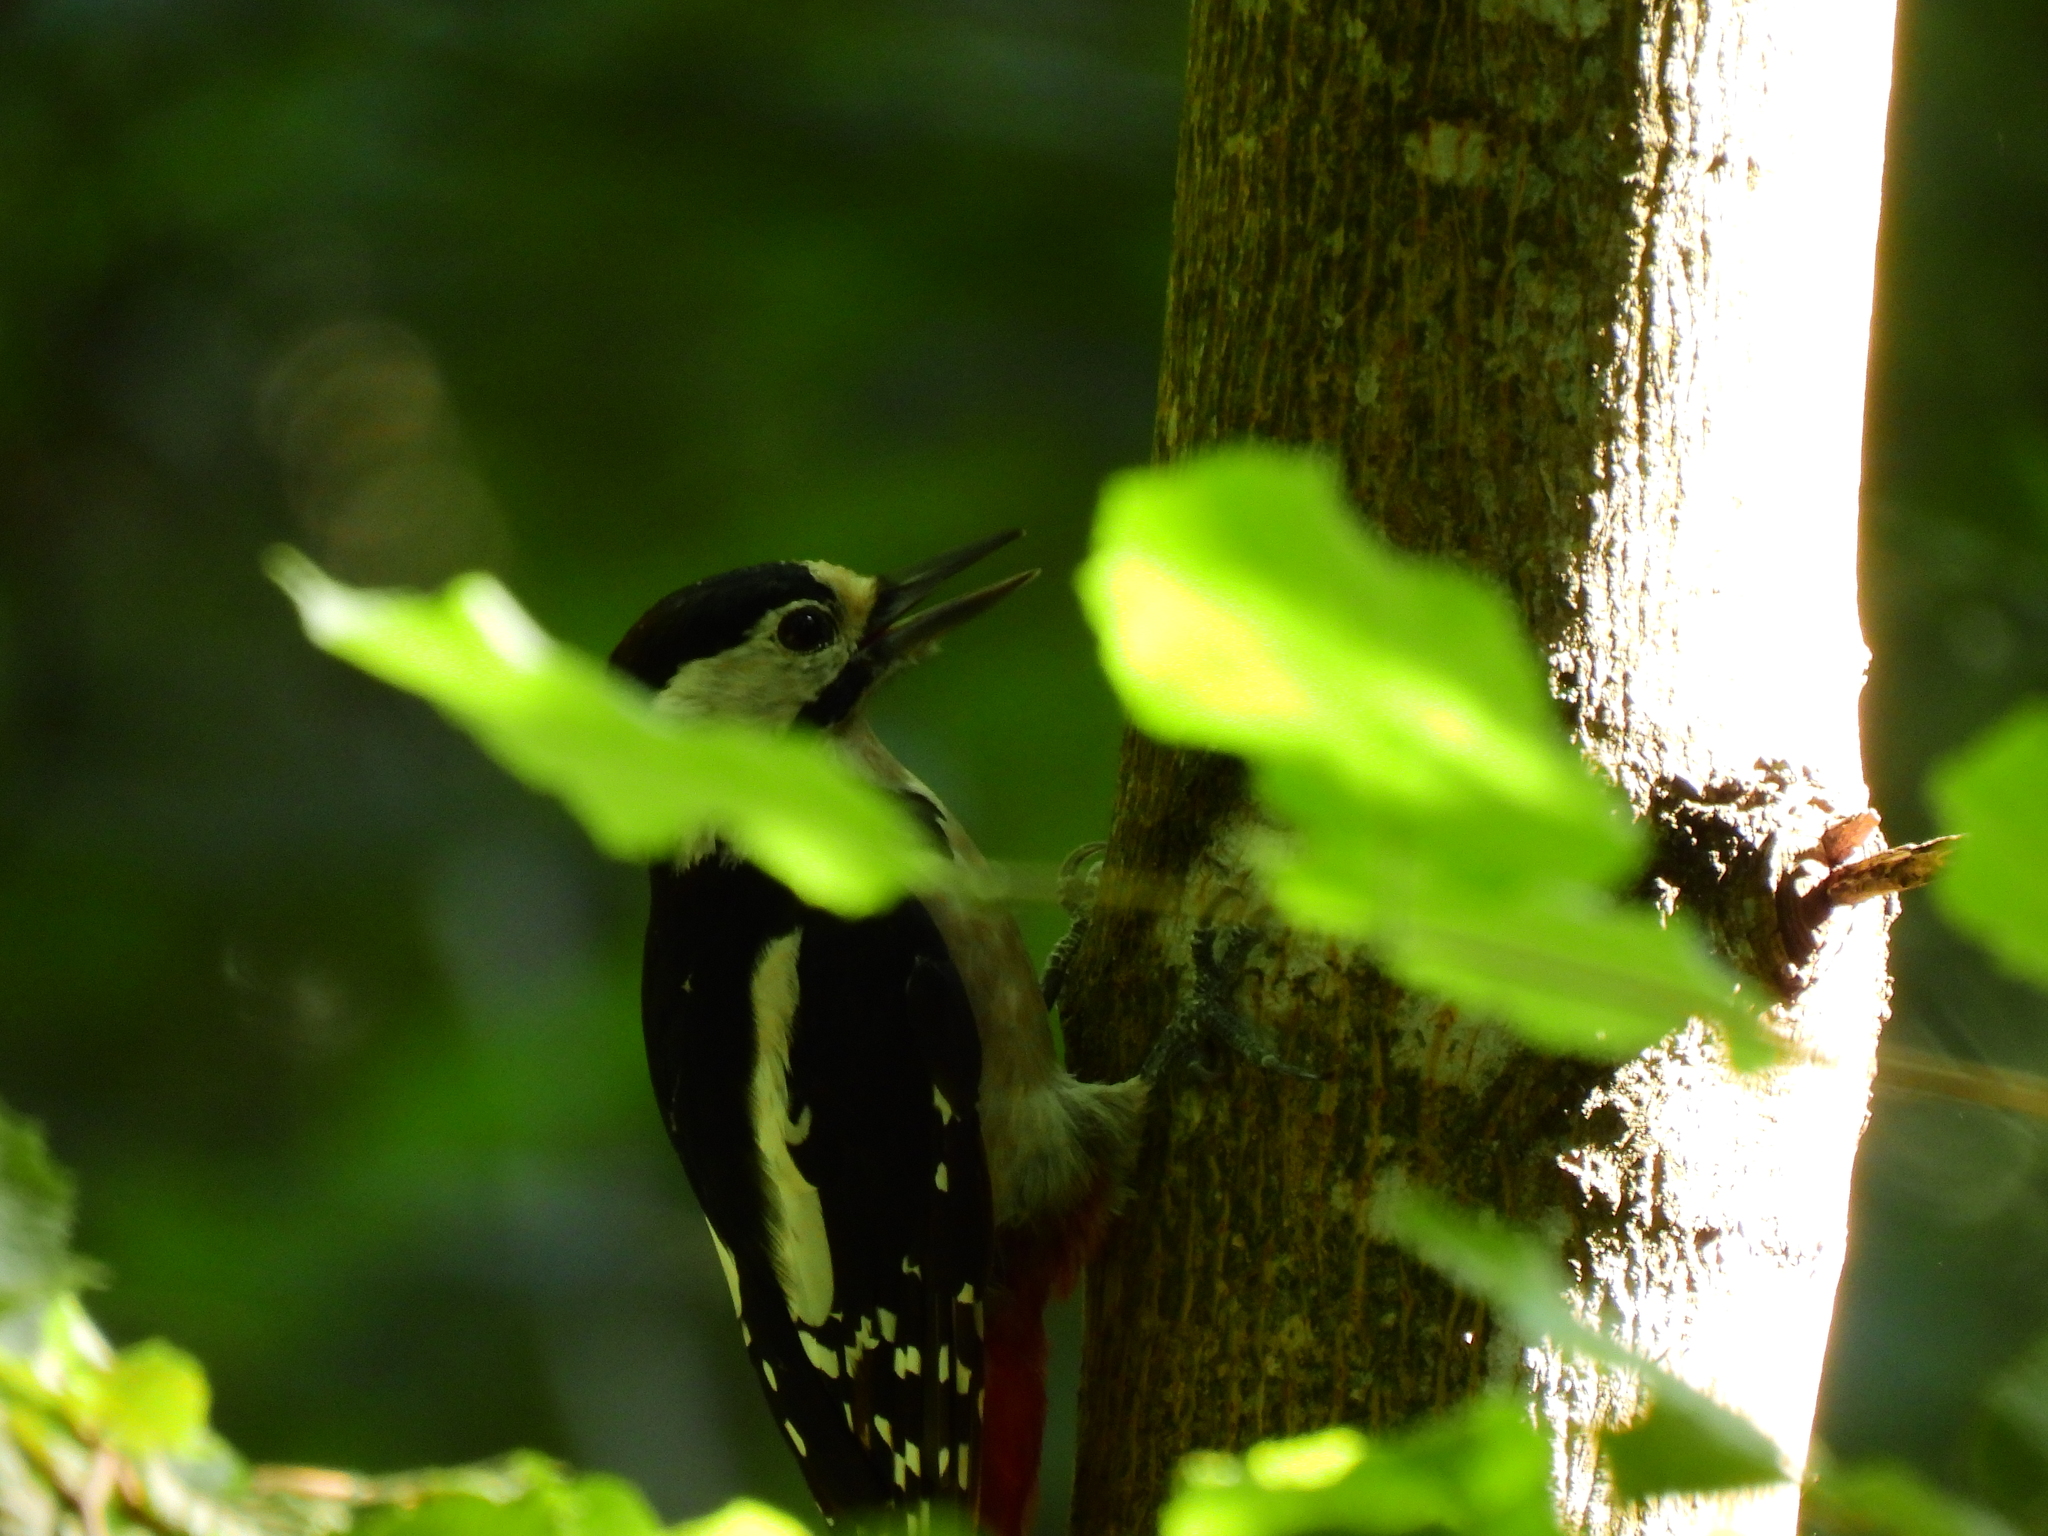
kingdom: Animalia
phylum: Chordata
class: Aves
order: Piciformes
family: Picidae
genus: Dendrocopos
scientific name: Dendrocopos major
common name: Great spotted woodpecker
